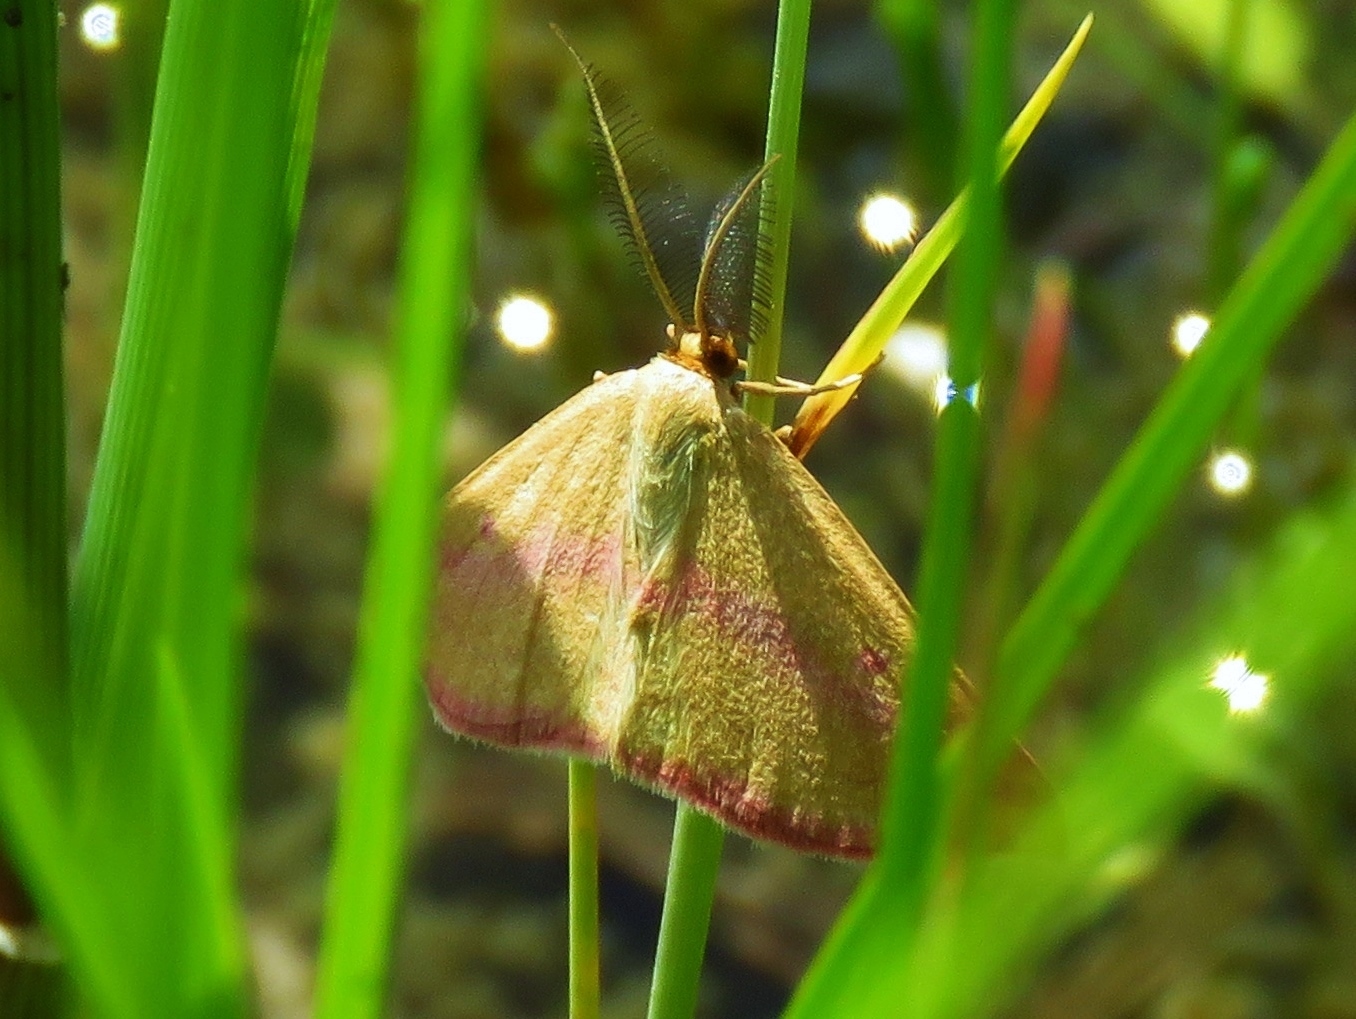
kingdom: Animalia
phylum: Arthropoda
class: Insecta
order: Lepidoptera
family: Geometridae
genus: Haematopis
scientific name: Haematopis grataria
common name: Chickweed geometer
